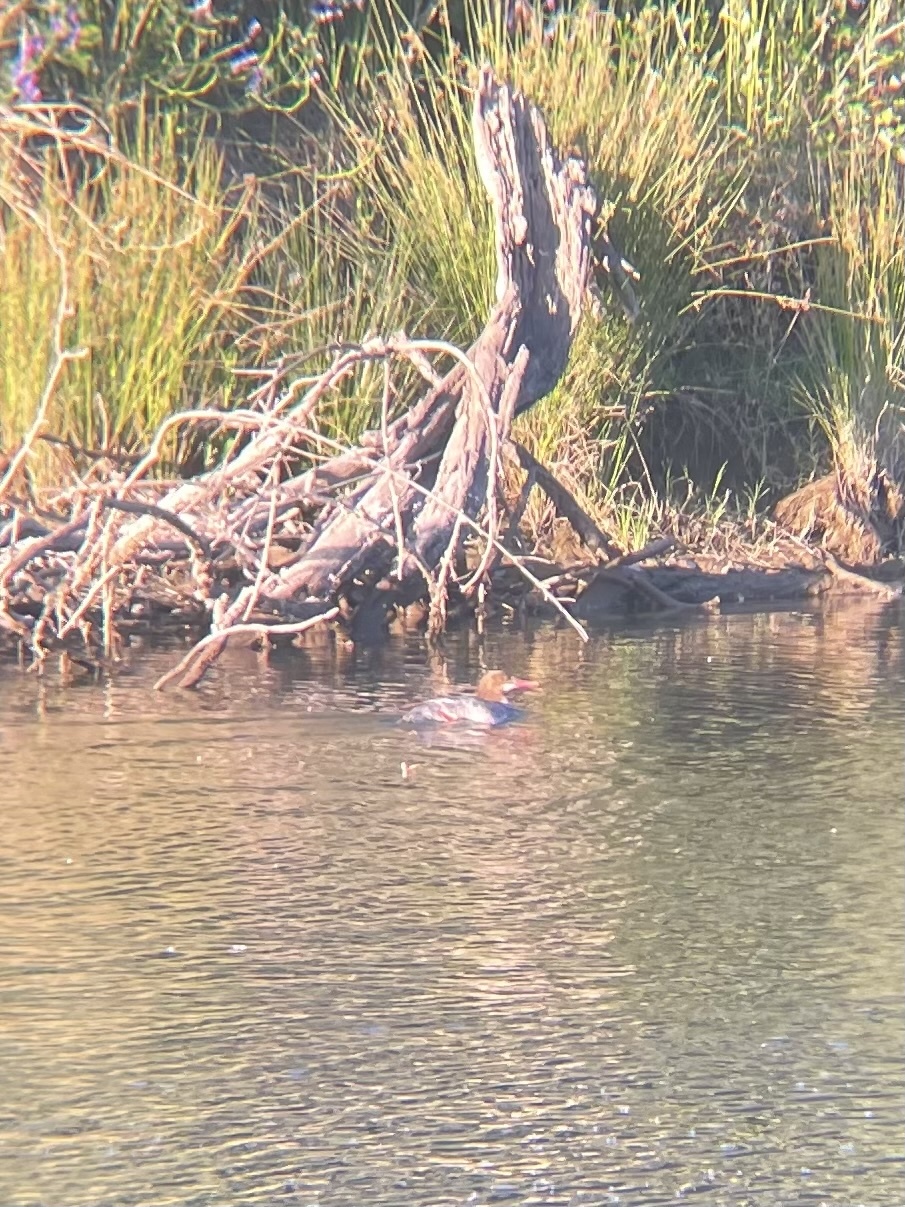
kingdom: Animalia
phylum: Chordata
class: Aves
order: Anseriformes
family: Anatidae
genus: Mergus
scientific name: Mergus merganser
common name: Common merganser
